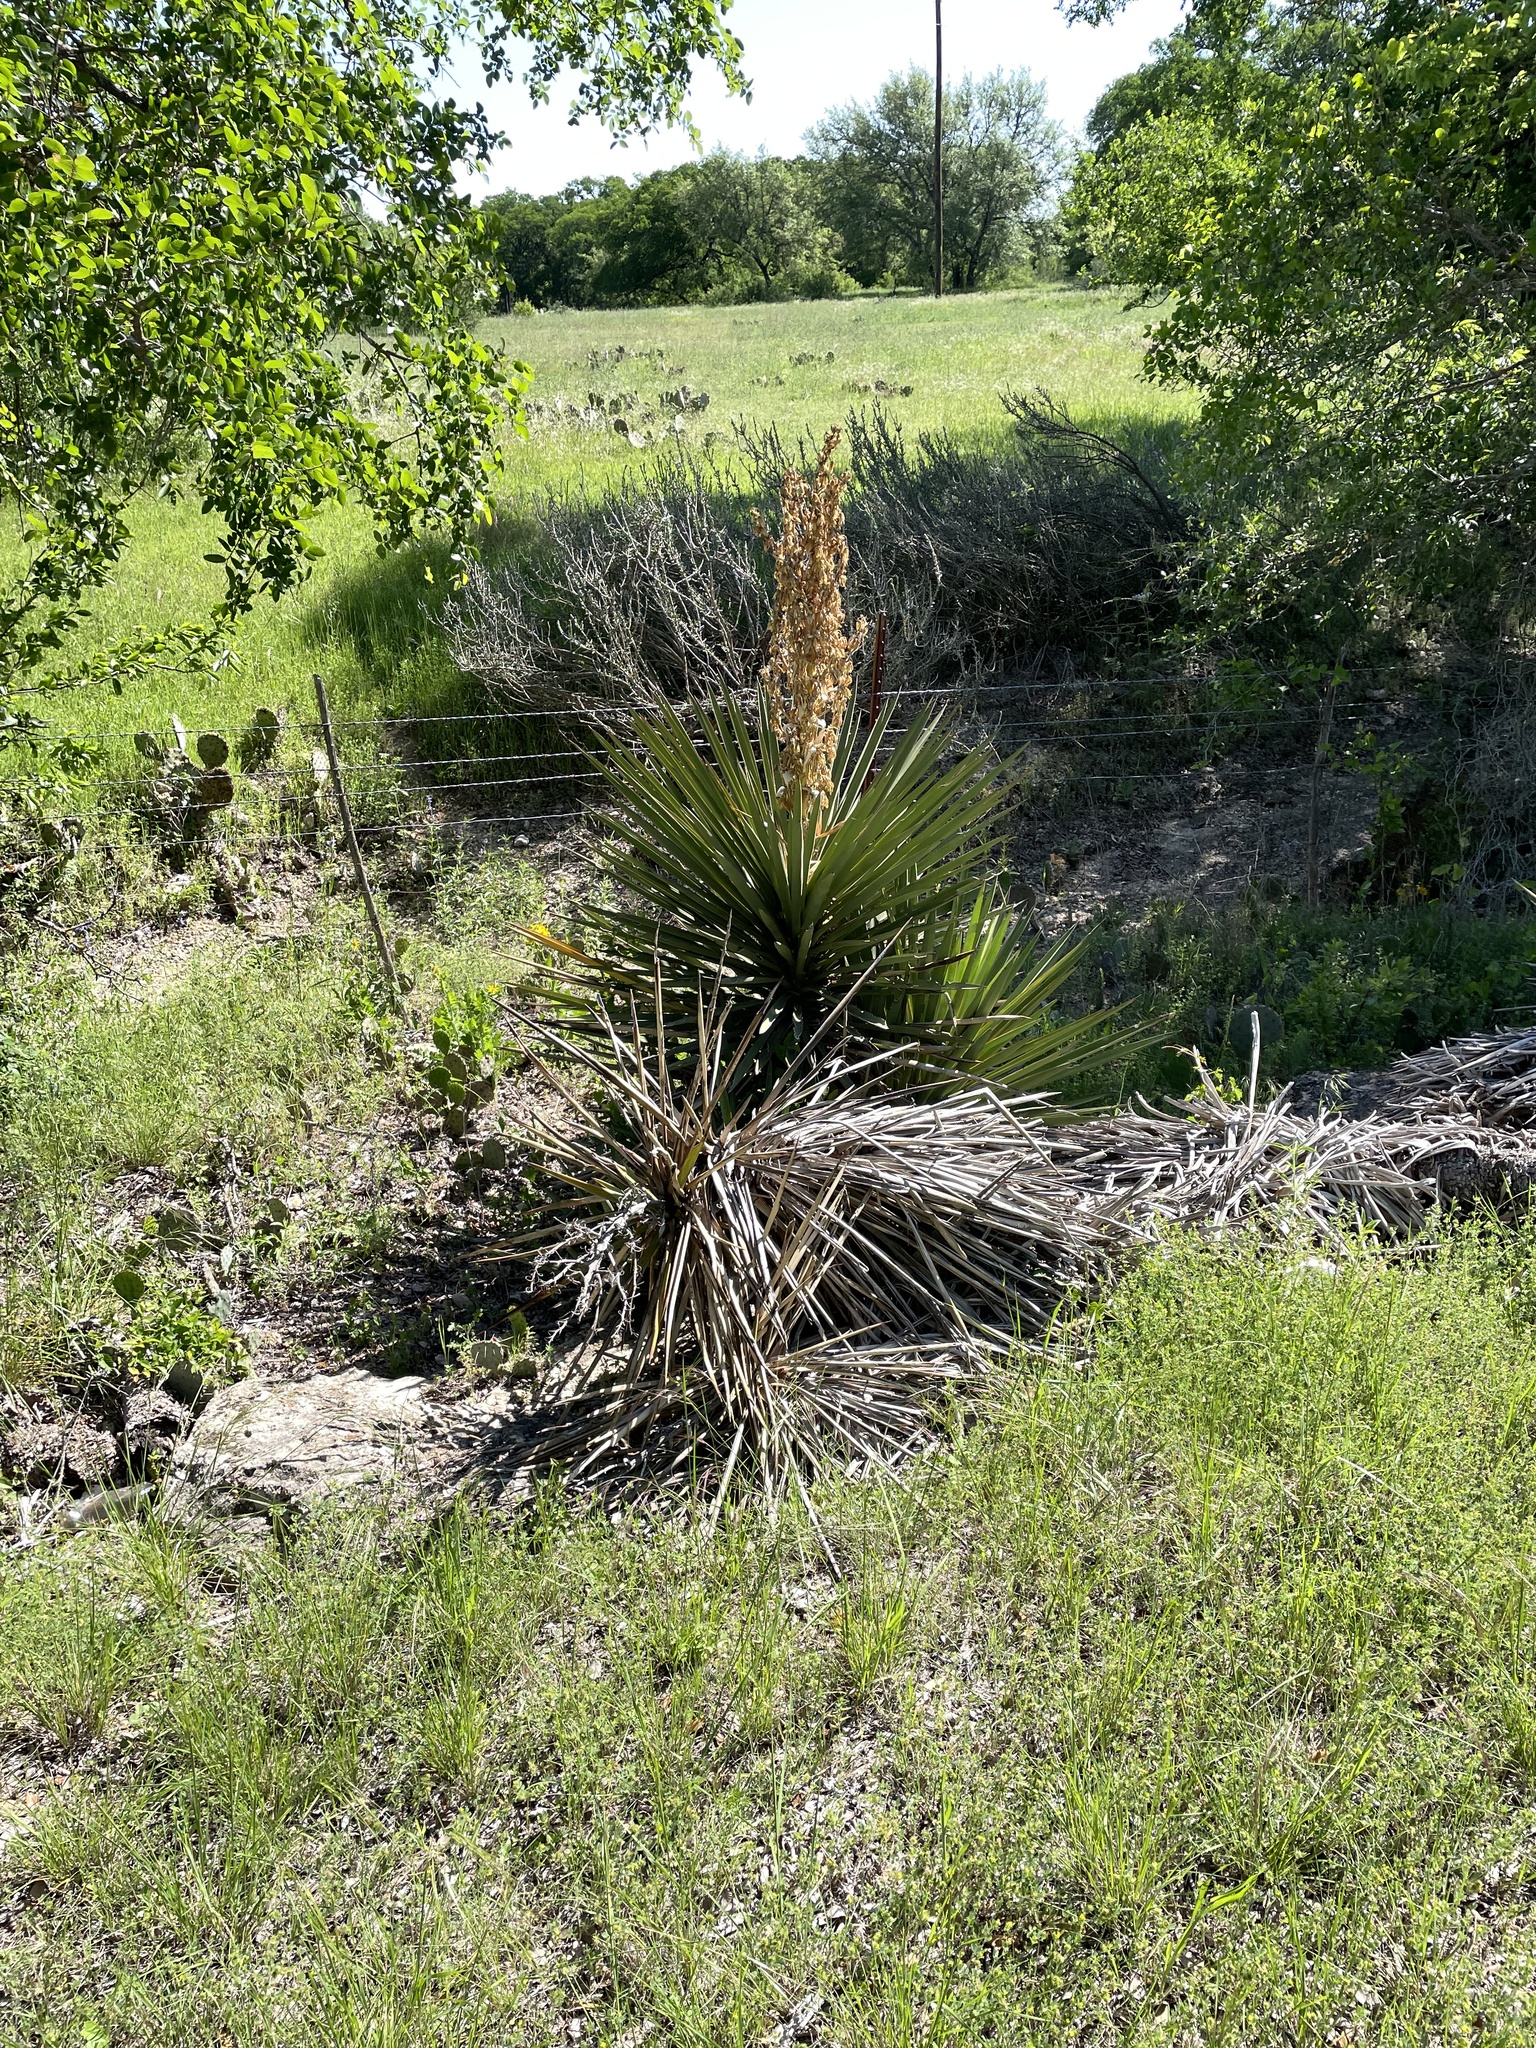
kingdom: Plantae
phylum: Tracheophyta
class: Liliopsida
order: Asparagales
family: Asparagaceae
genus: Yucca
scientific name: Yucca treculiana
